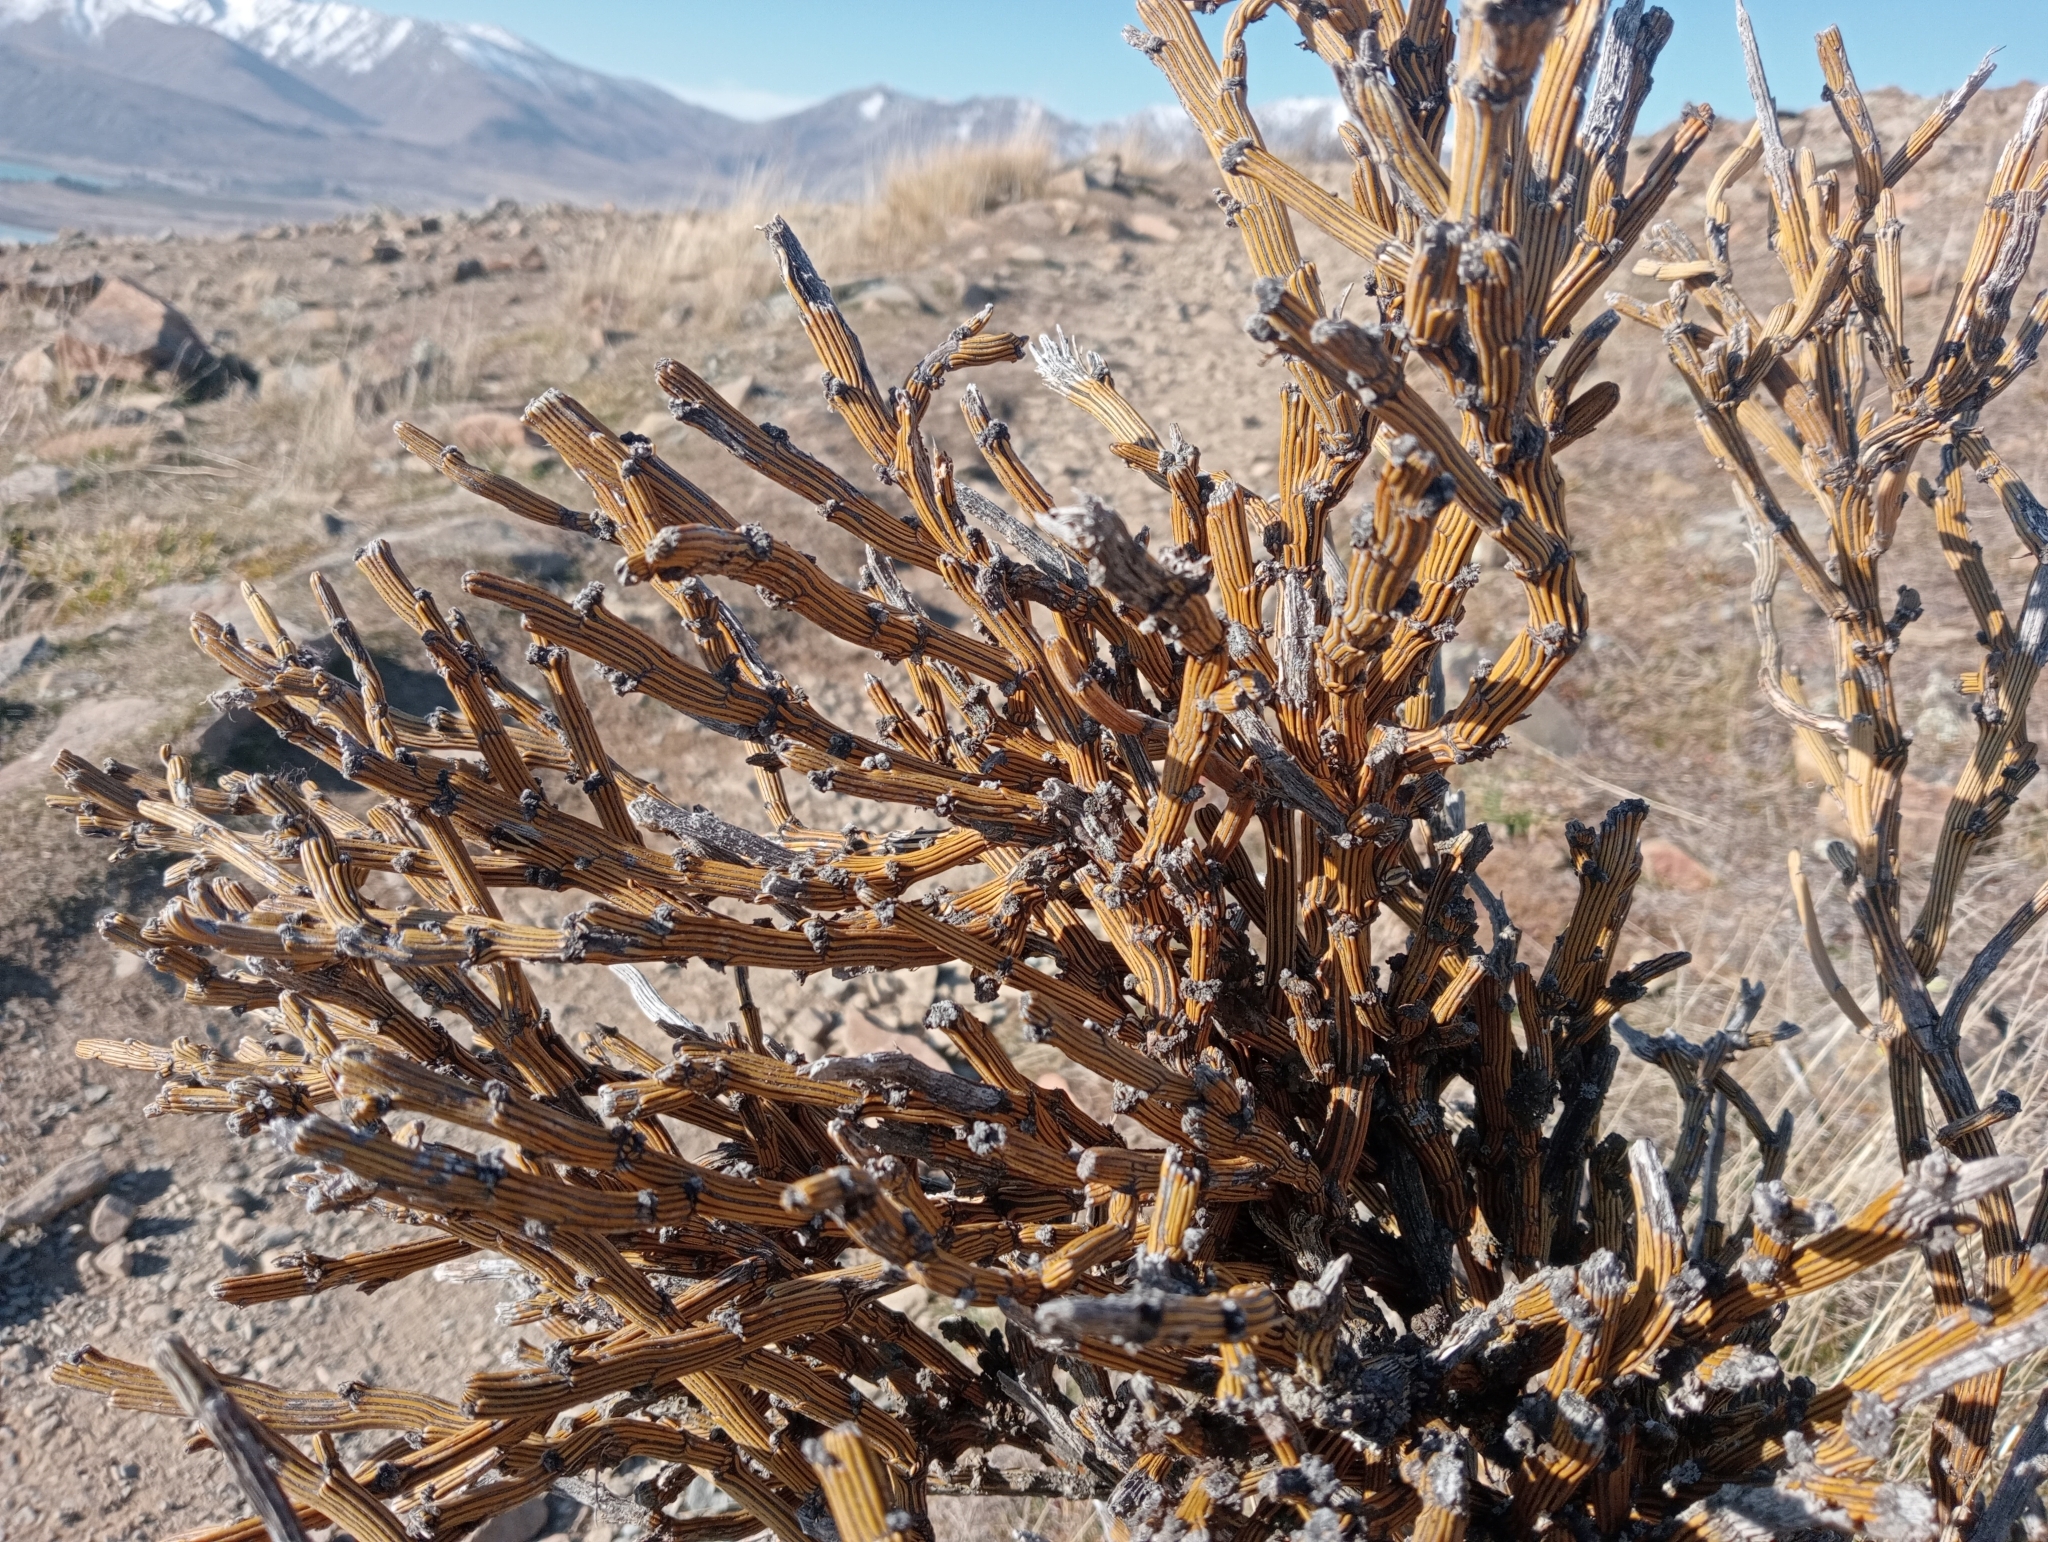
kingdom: Plantae
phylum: Tracheophyta
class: Magnoliopsida
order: Fabales
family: Fabaceae
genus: Carmichaelia
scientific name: Carmichaelia crassicaulis
